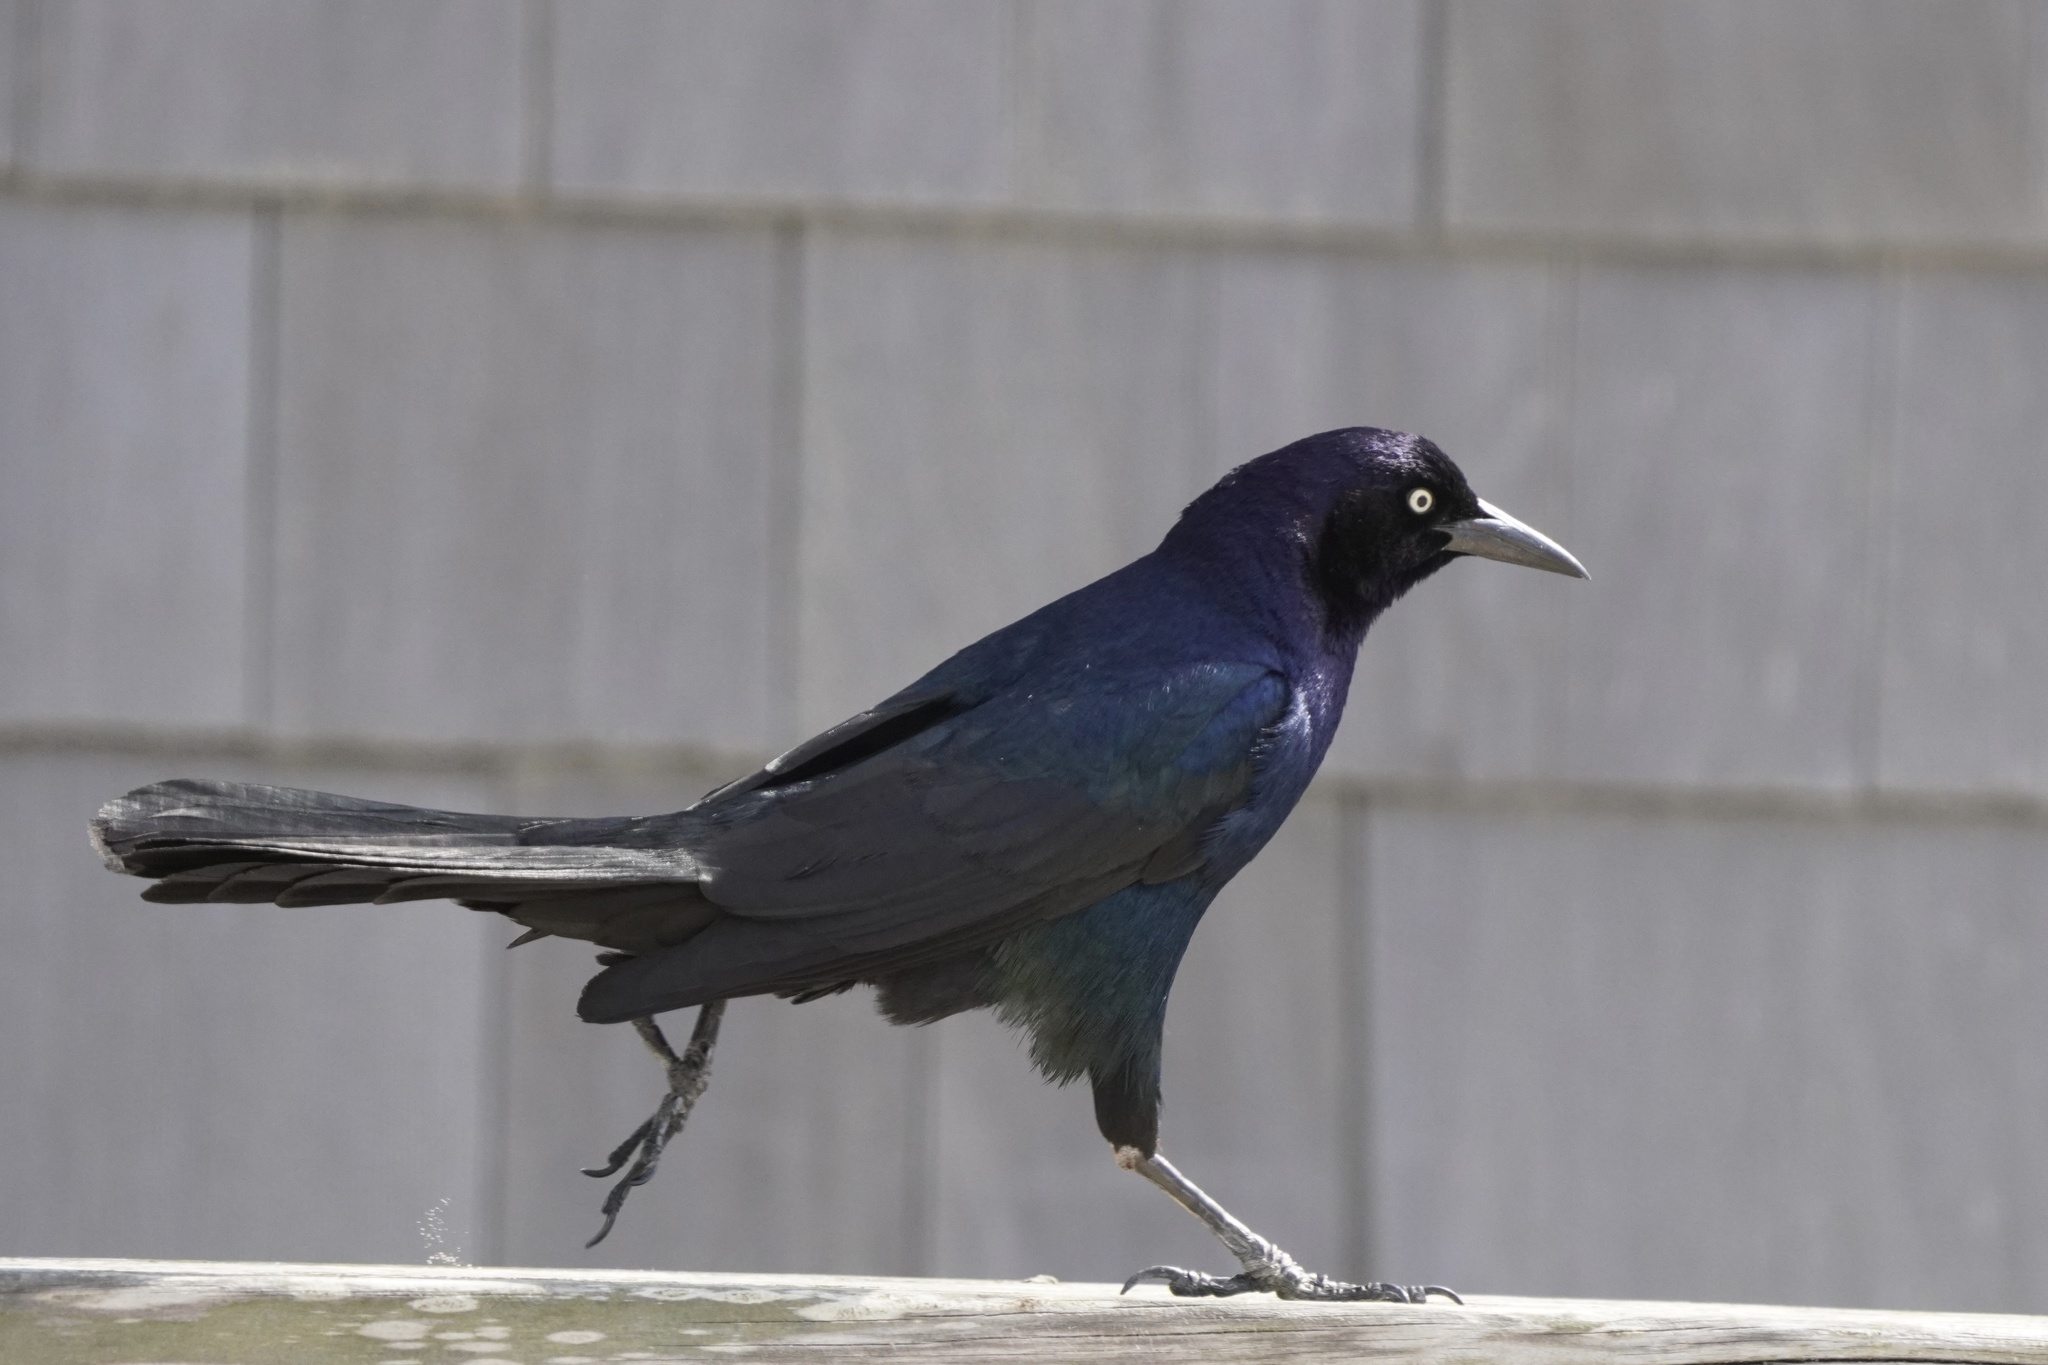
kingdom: Animalia
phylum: Chordata
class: Aves
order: Passeriformes
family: Icteridae
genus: Quiscalus
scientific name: Quiscalus major
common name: Boat-tailed grackle
